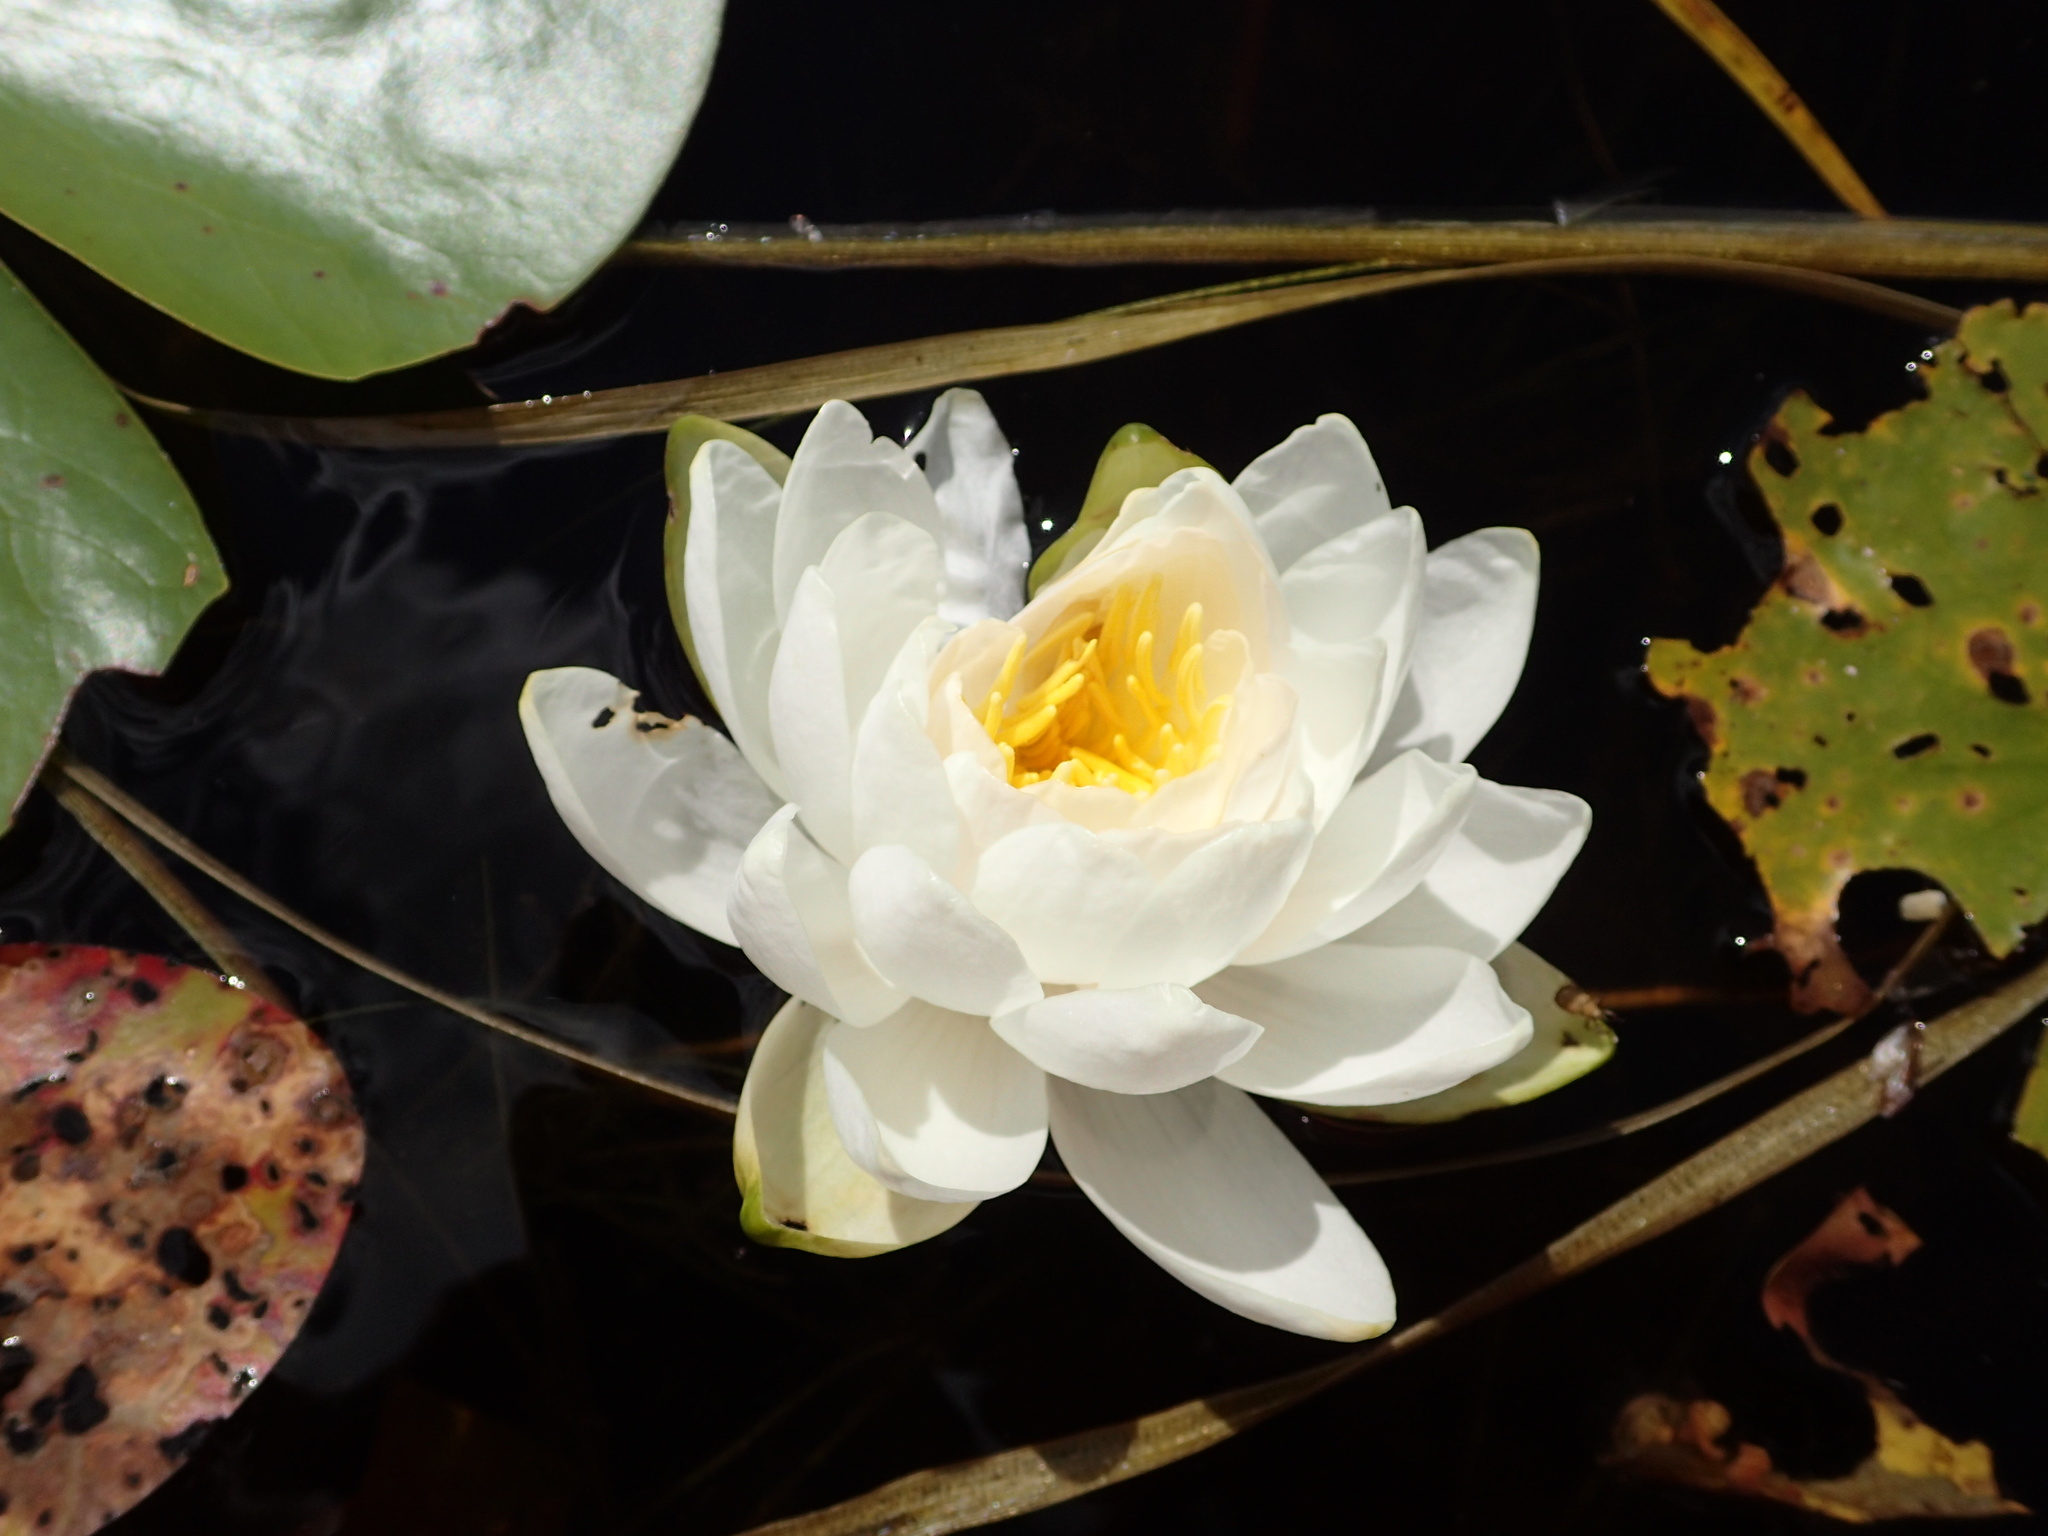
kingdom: Plantae
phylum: Tracheophyta
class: Magnoliopsida
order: Nymphaeales
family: Nymphaeaceae
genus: Nymphaea
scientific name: Nymphaea odorata
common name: Fragrant water-lily
